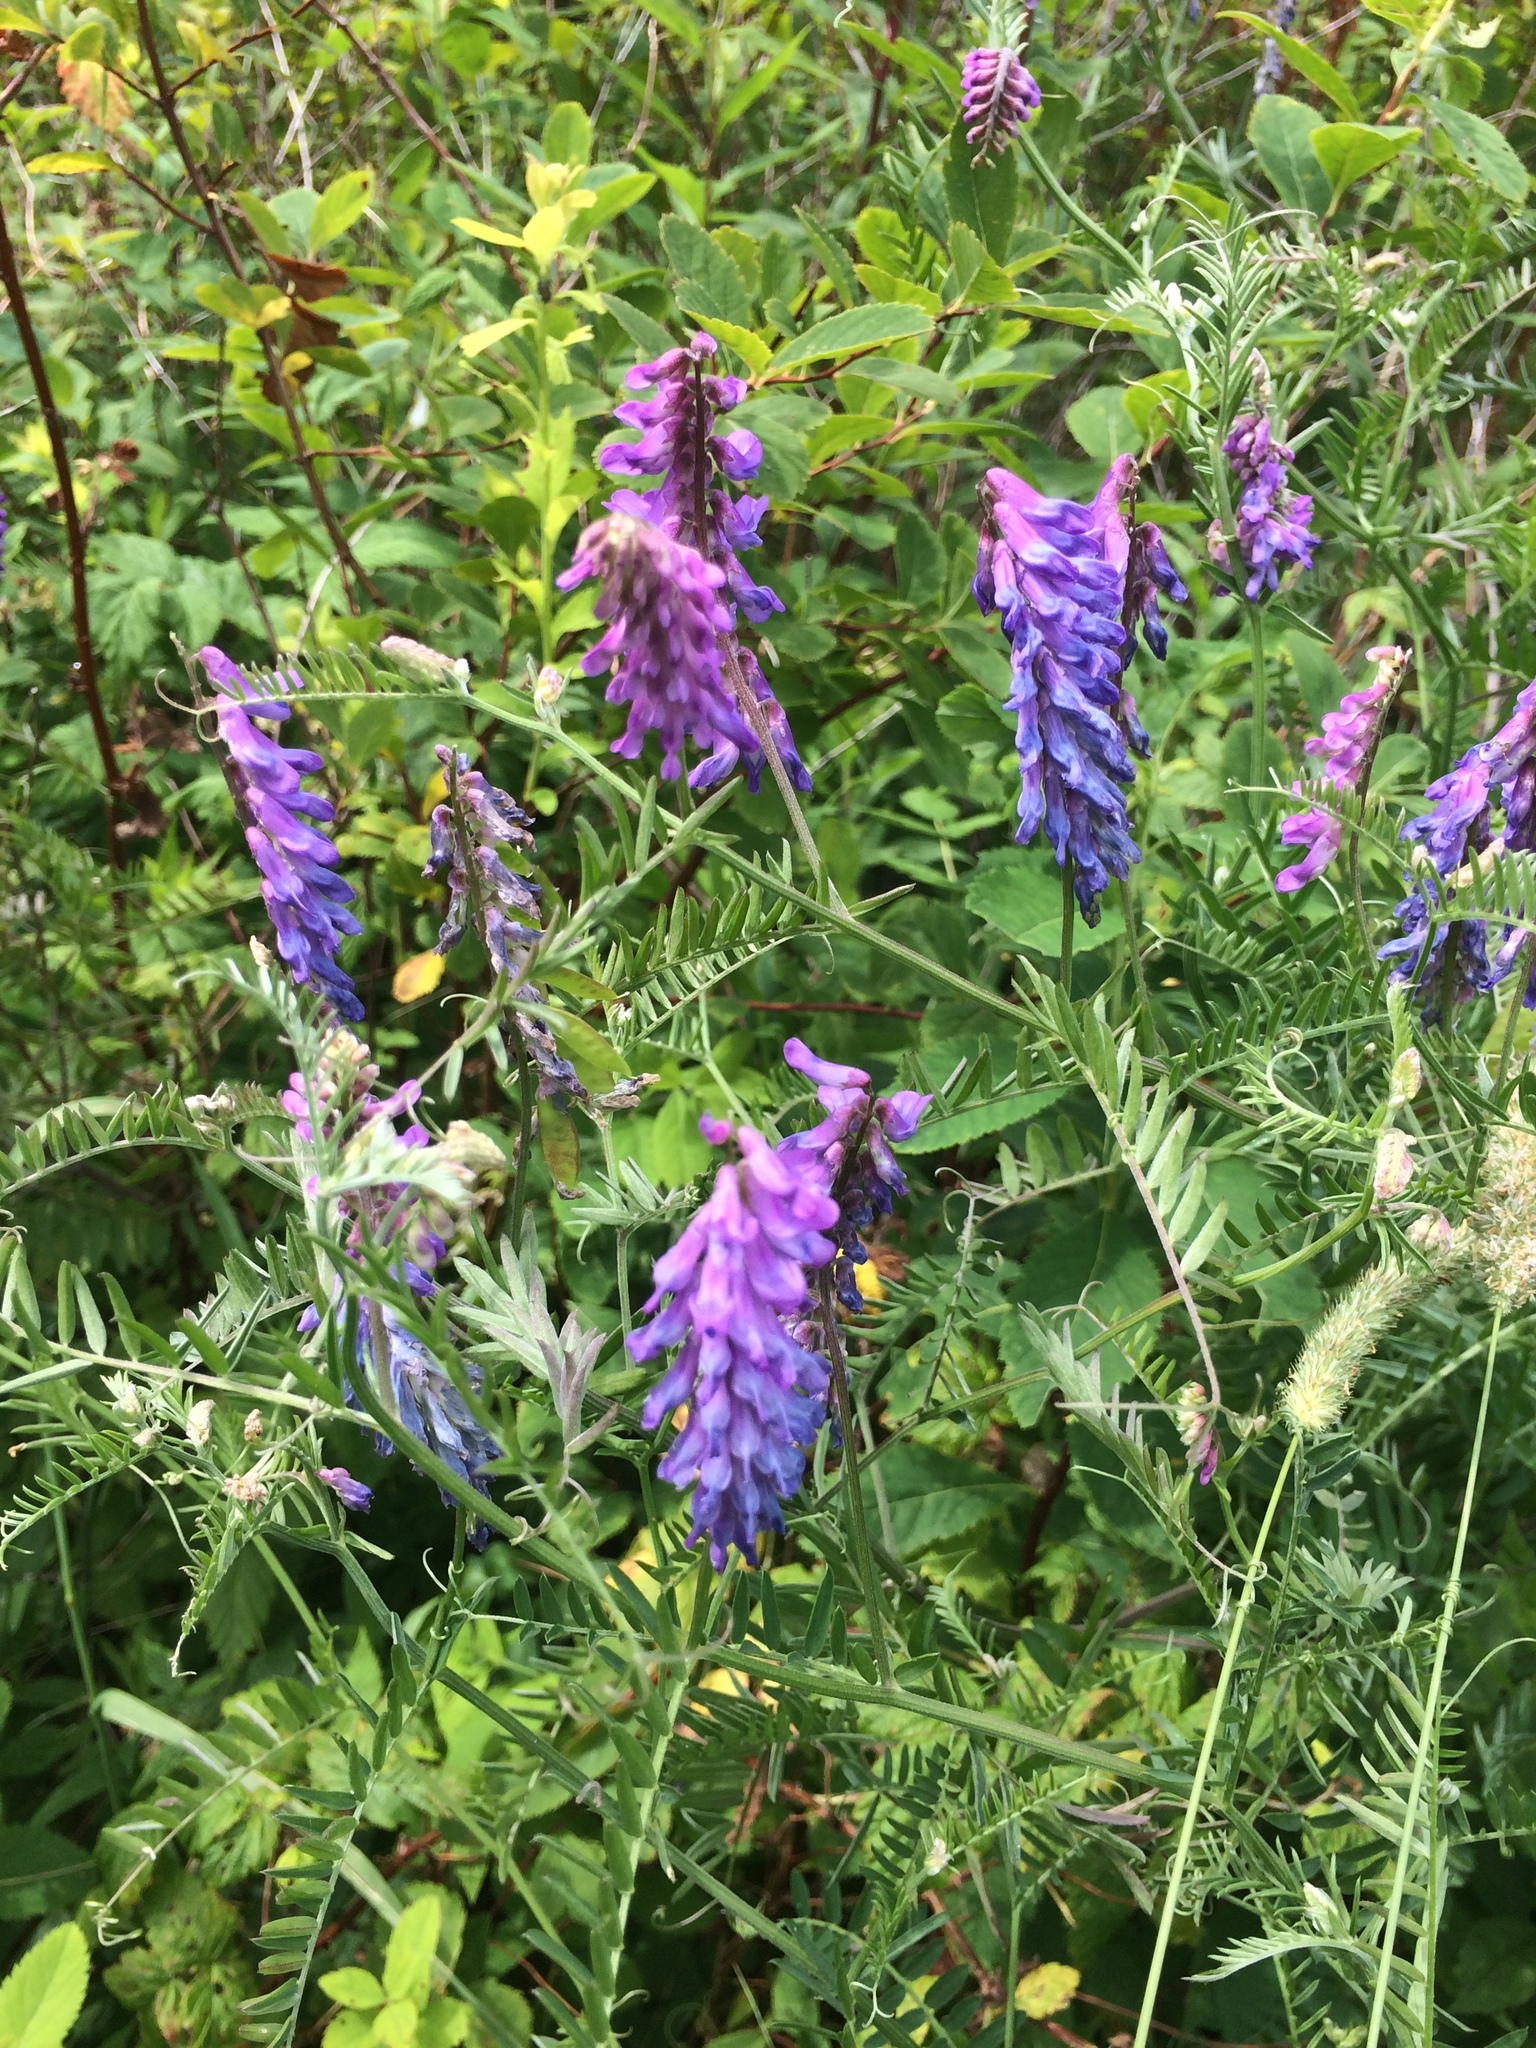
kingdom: Plantae
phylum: Tracheophyta
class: Magnoliopsida
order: Fabales
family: Fabaceae
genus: Vicia
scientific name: Vicia cracca
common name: Bird vetch
